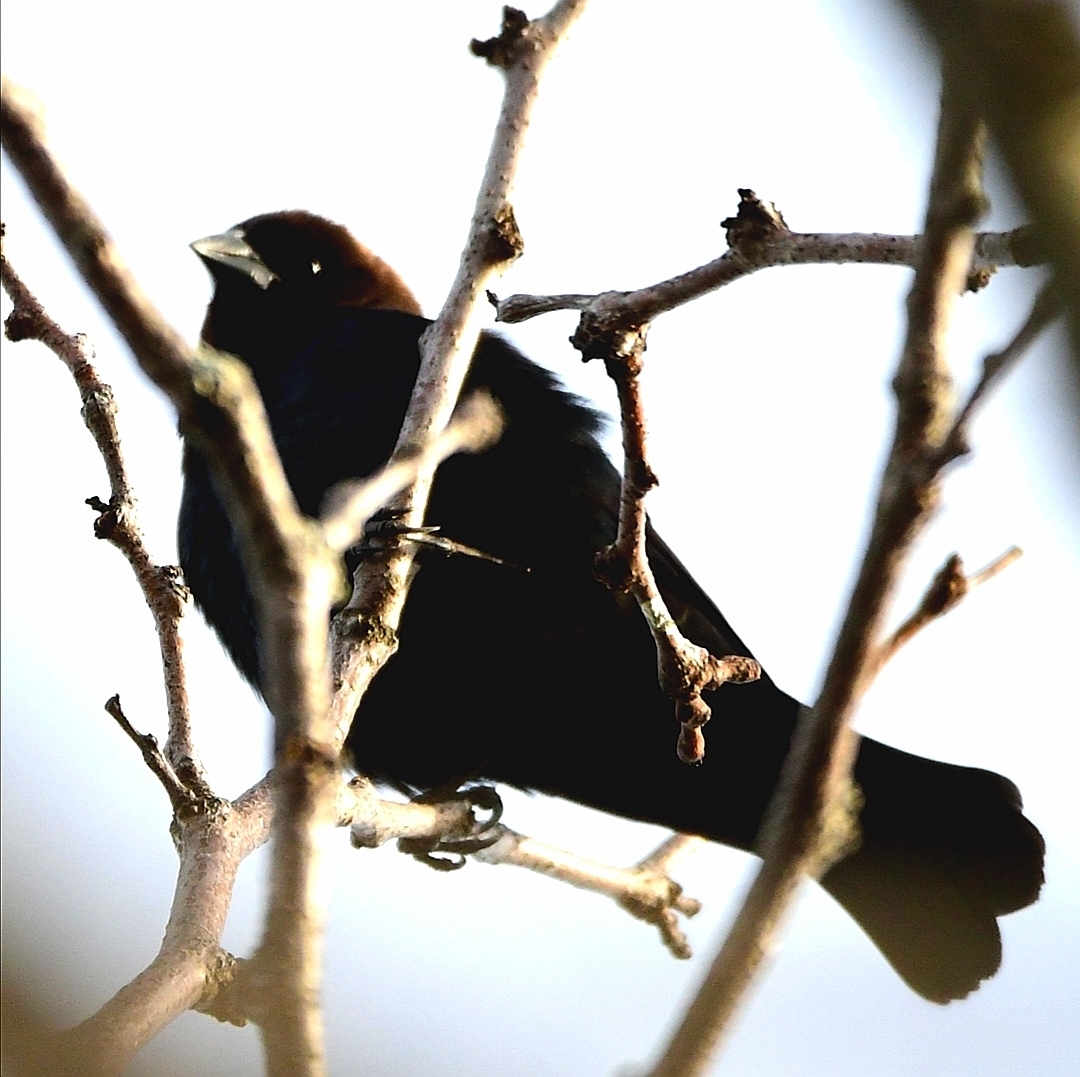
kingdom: Animalia
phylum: Chordata
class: Aves
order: Passeriformes
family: Icteridae
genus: Molothrus
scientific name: Molothrus ater
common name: Brown-headed cowbird
